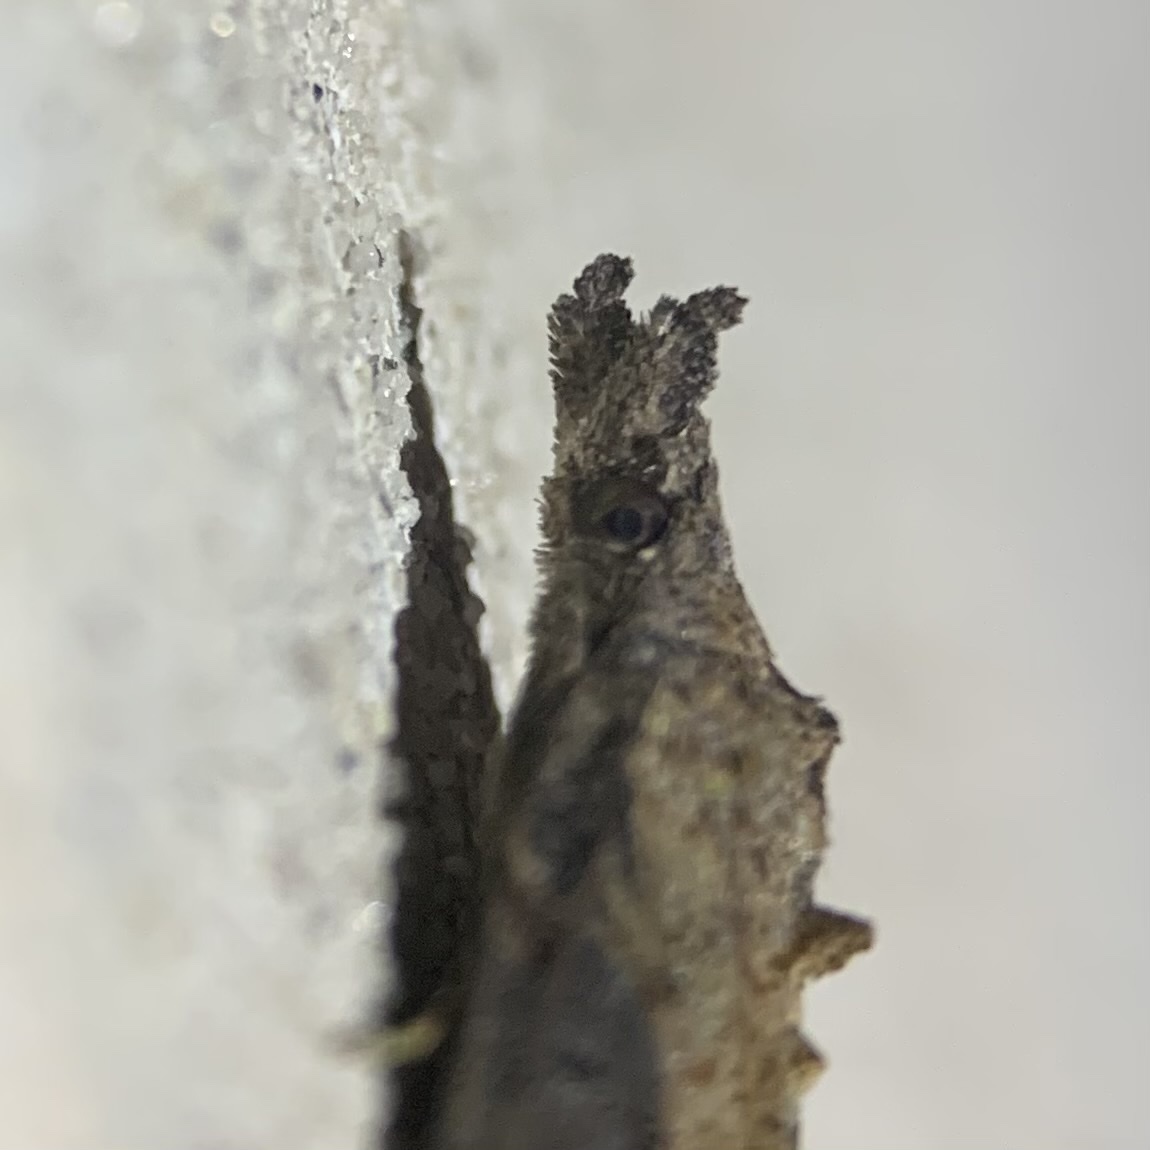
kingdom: Animalia
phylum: Arthropoda
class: Insecta
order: Lepidoptera
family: Erebidae
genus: Hypena
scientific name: Hypena scabra
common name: Green cloverworm
